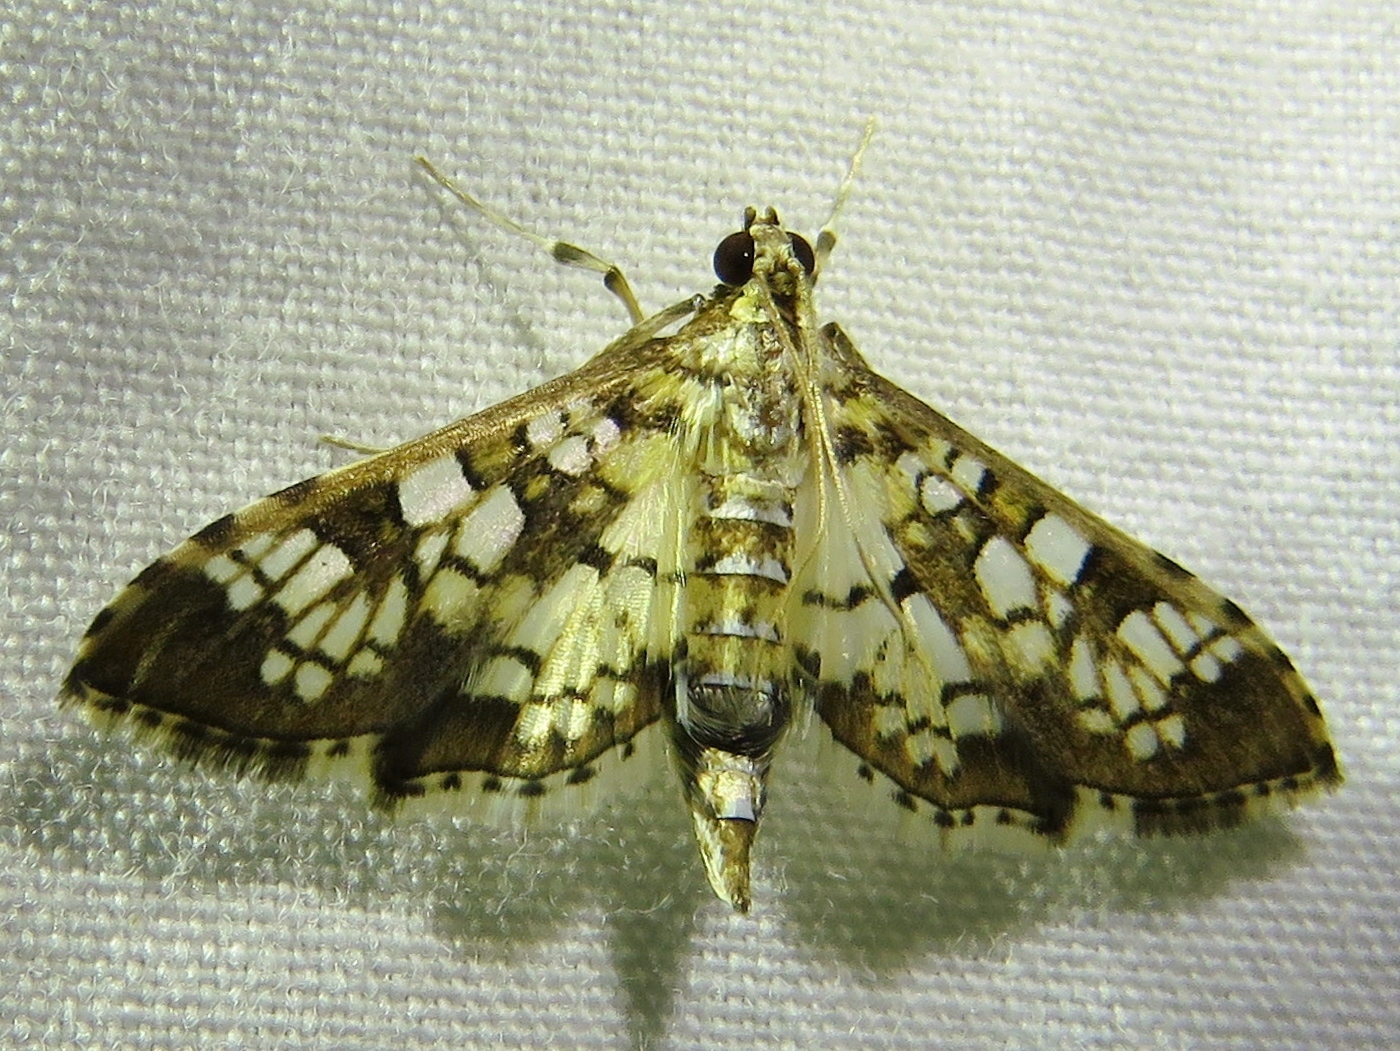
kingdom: Animalia
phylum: Arthropoda
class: Insecta
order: Lepidoptera
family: Crambidae
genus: Samea
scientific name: Samea ecclesialis
